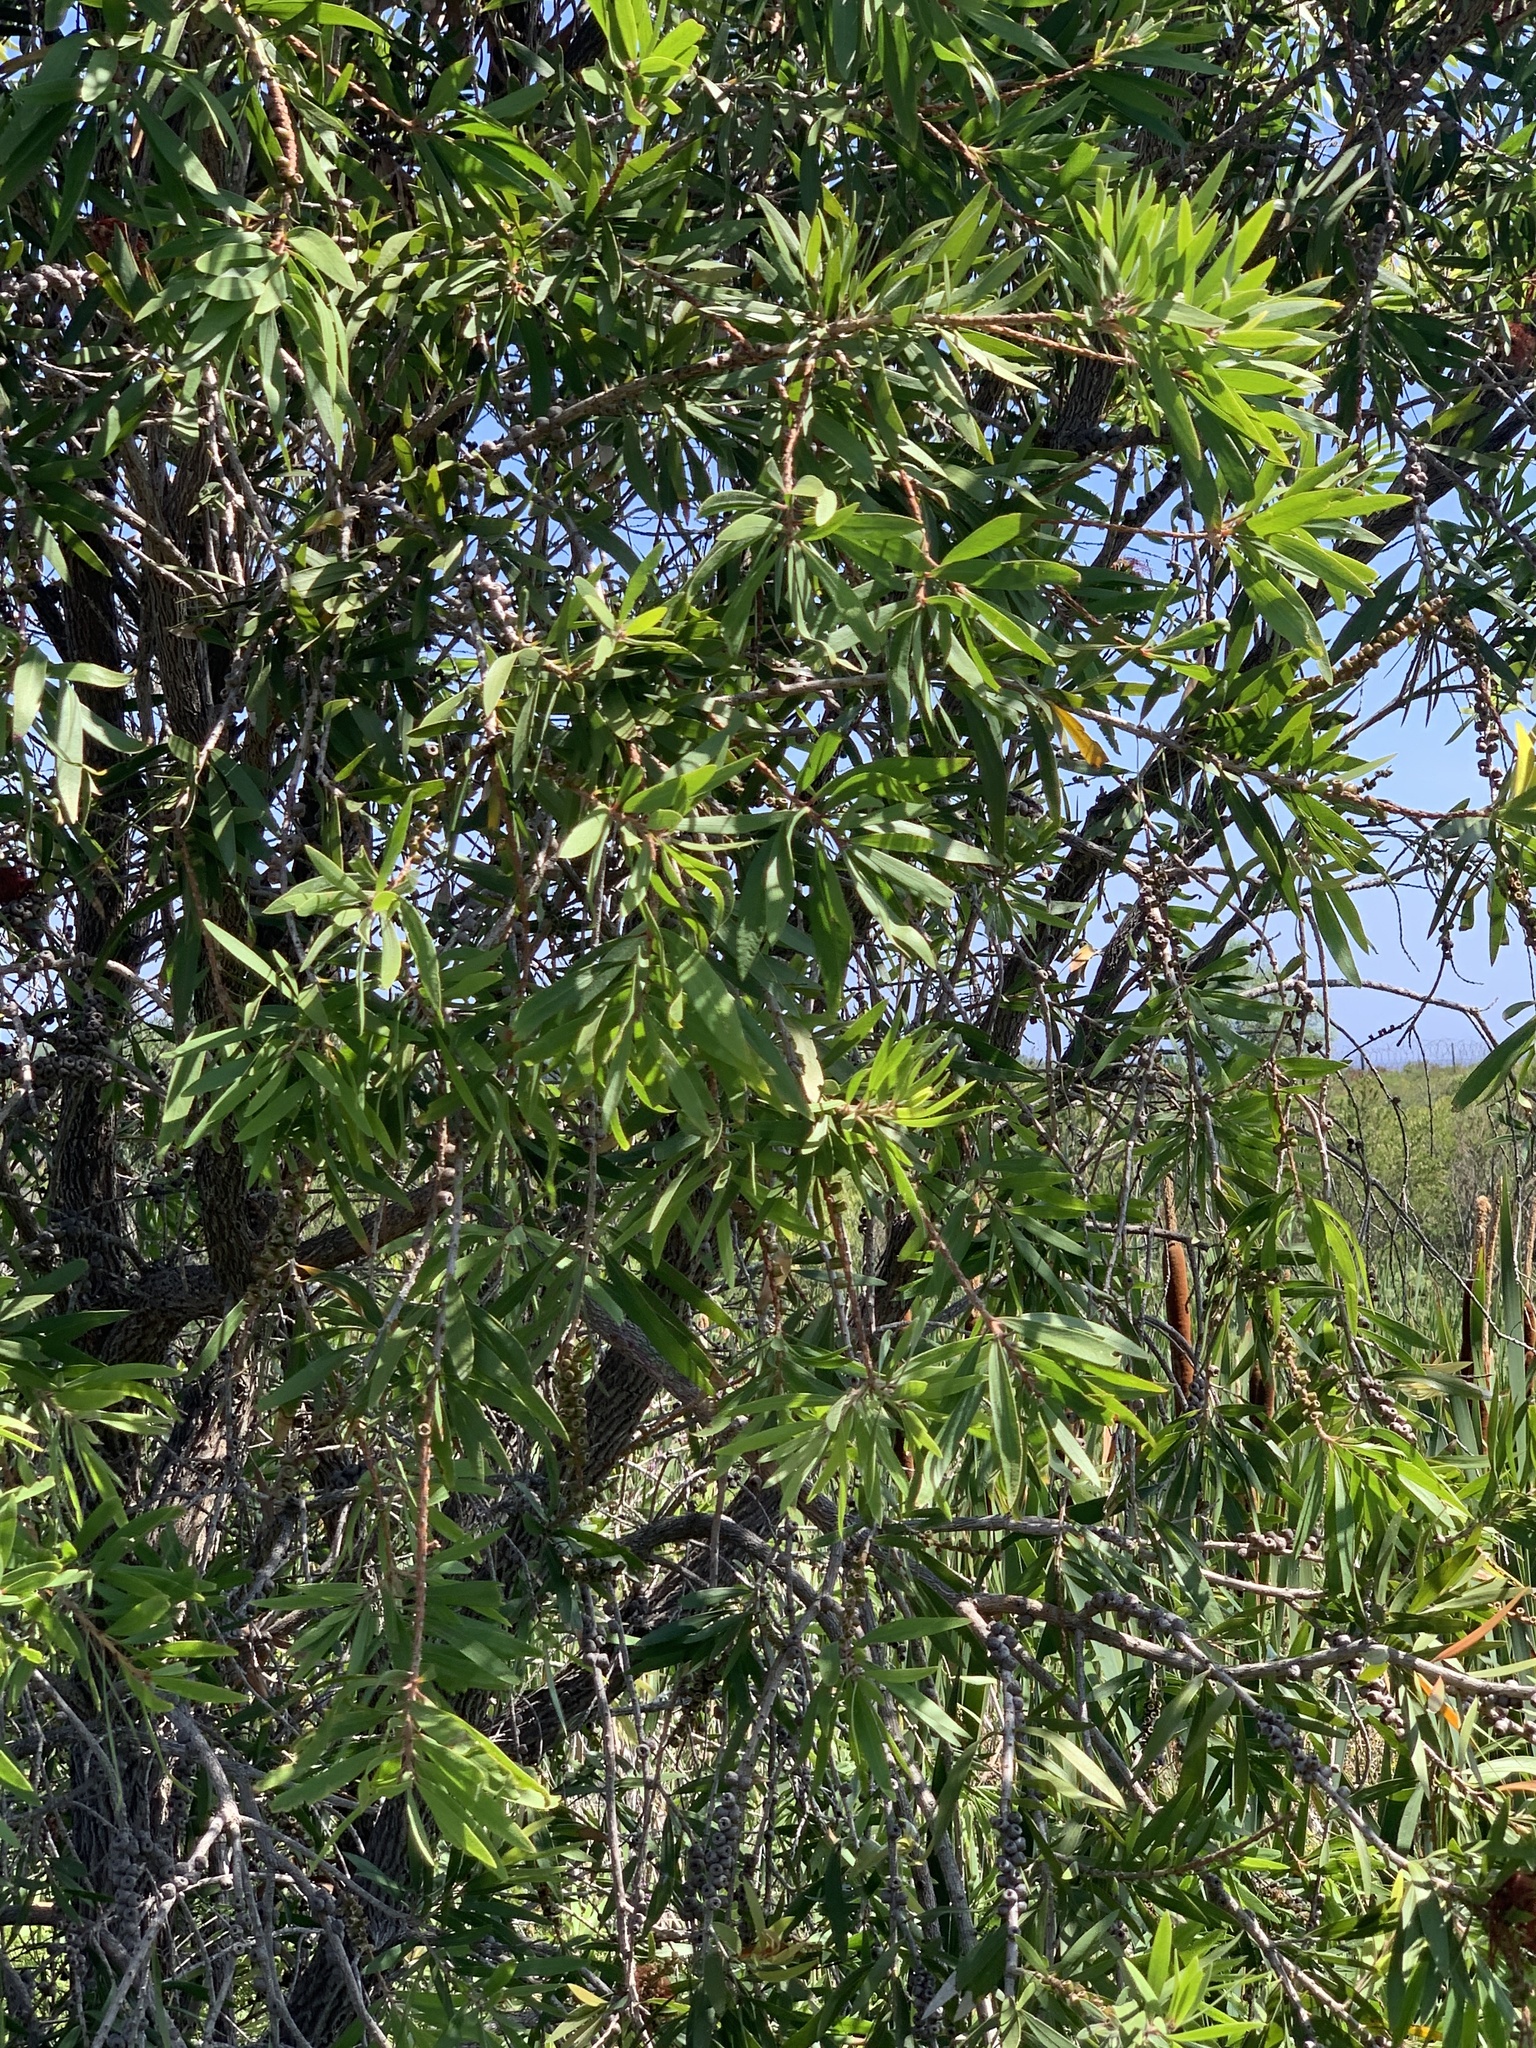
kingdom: Plantae
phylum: Tracheophyta
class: Magnoliopsida
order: Myrtales
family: Myrtaceae
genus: Callistemon
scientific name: Callistemon viminalis
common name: Drooping bottlebrush
